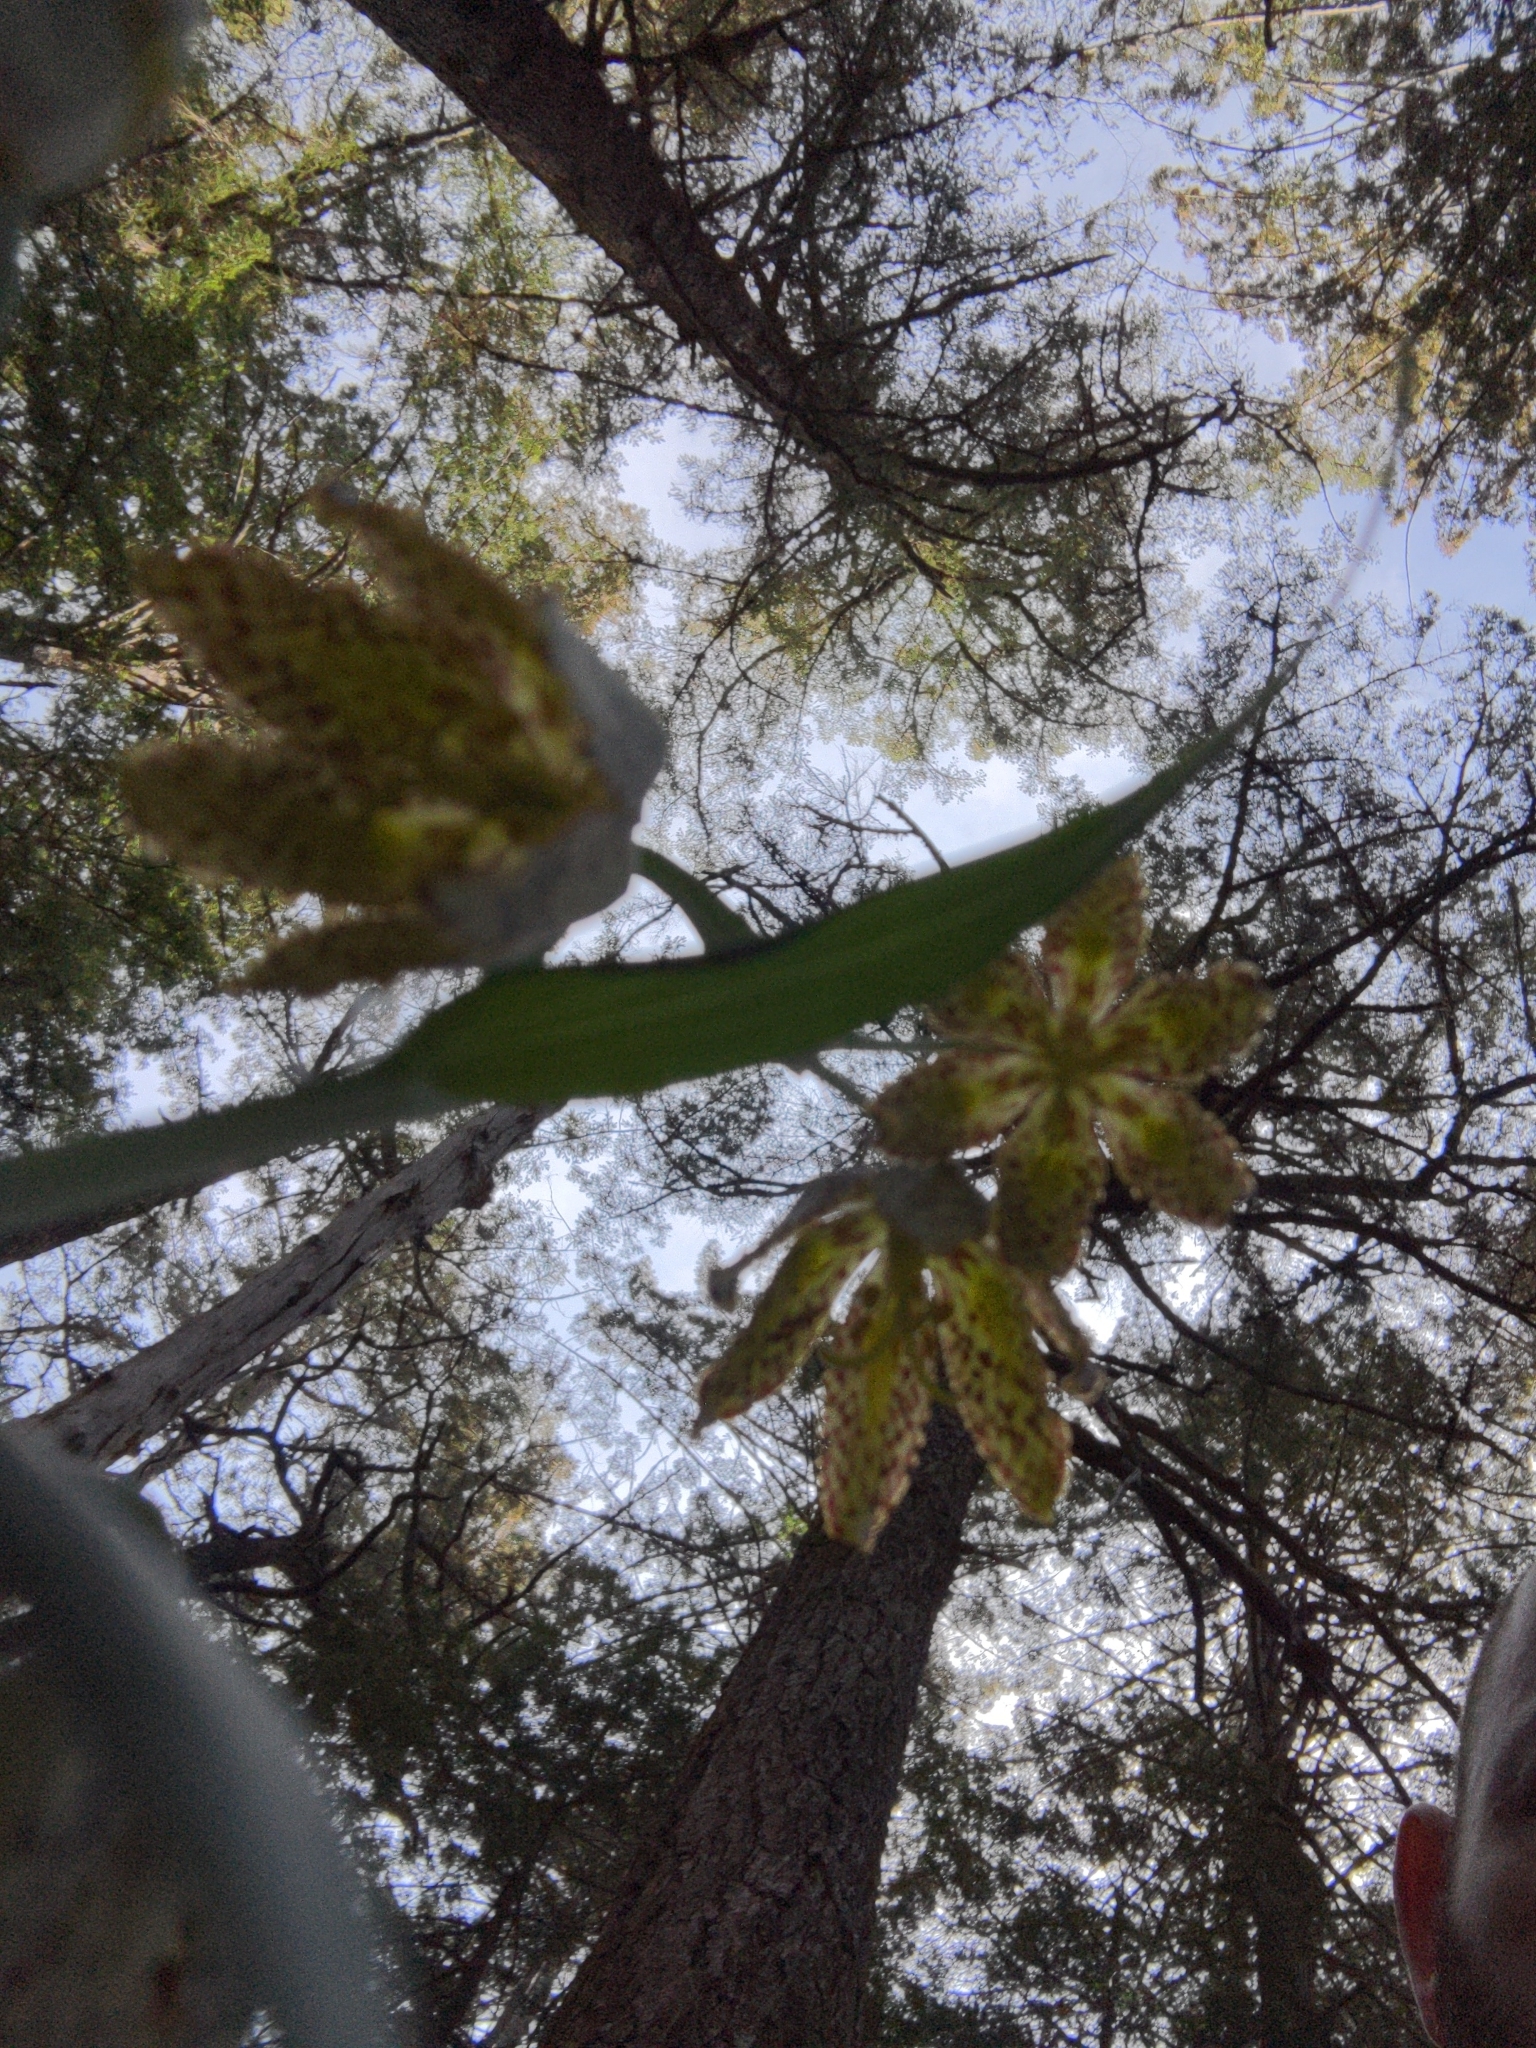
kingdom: Plantae
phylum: Tracheophyta
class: Liliopsida
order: Liliales
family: Liliaceae
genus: Fritillaria
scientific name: Fritillaria affinis
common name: Ojai fritillary
